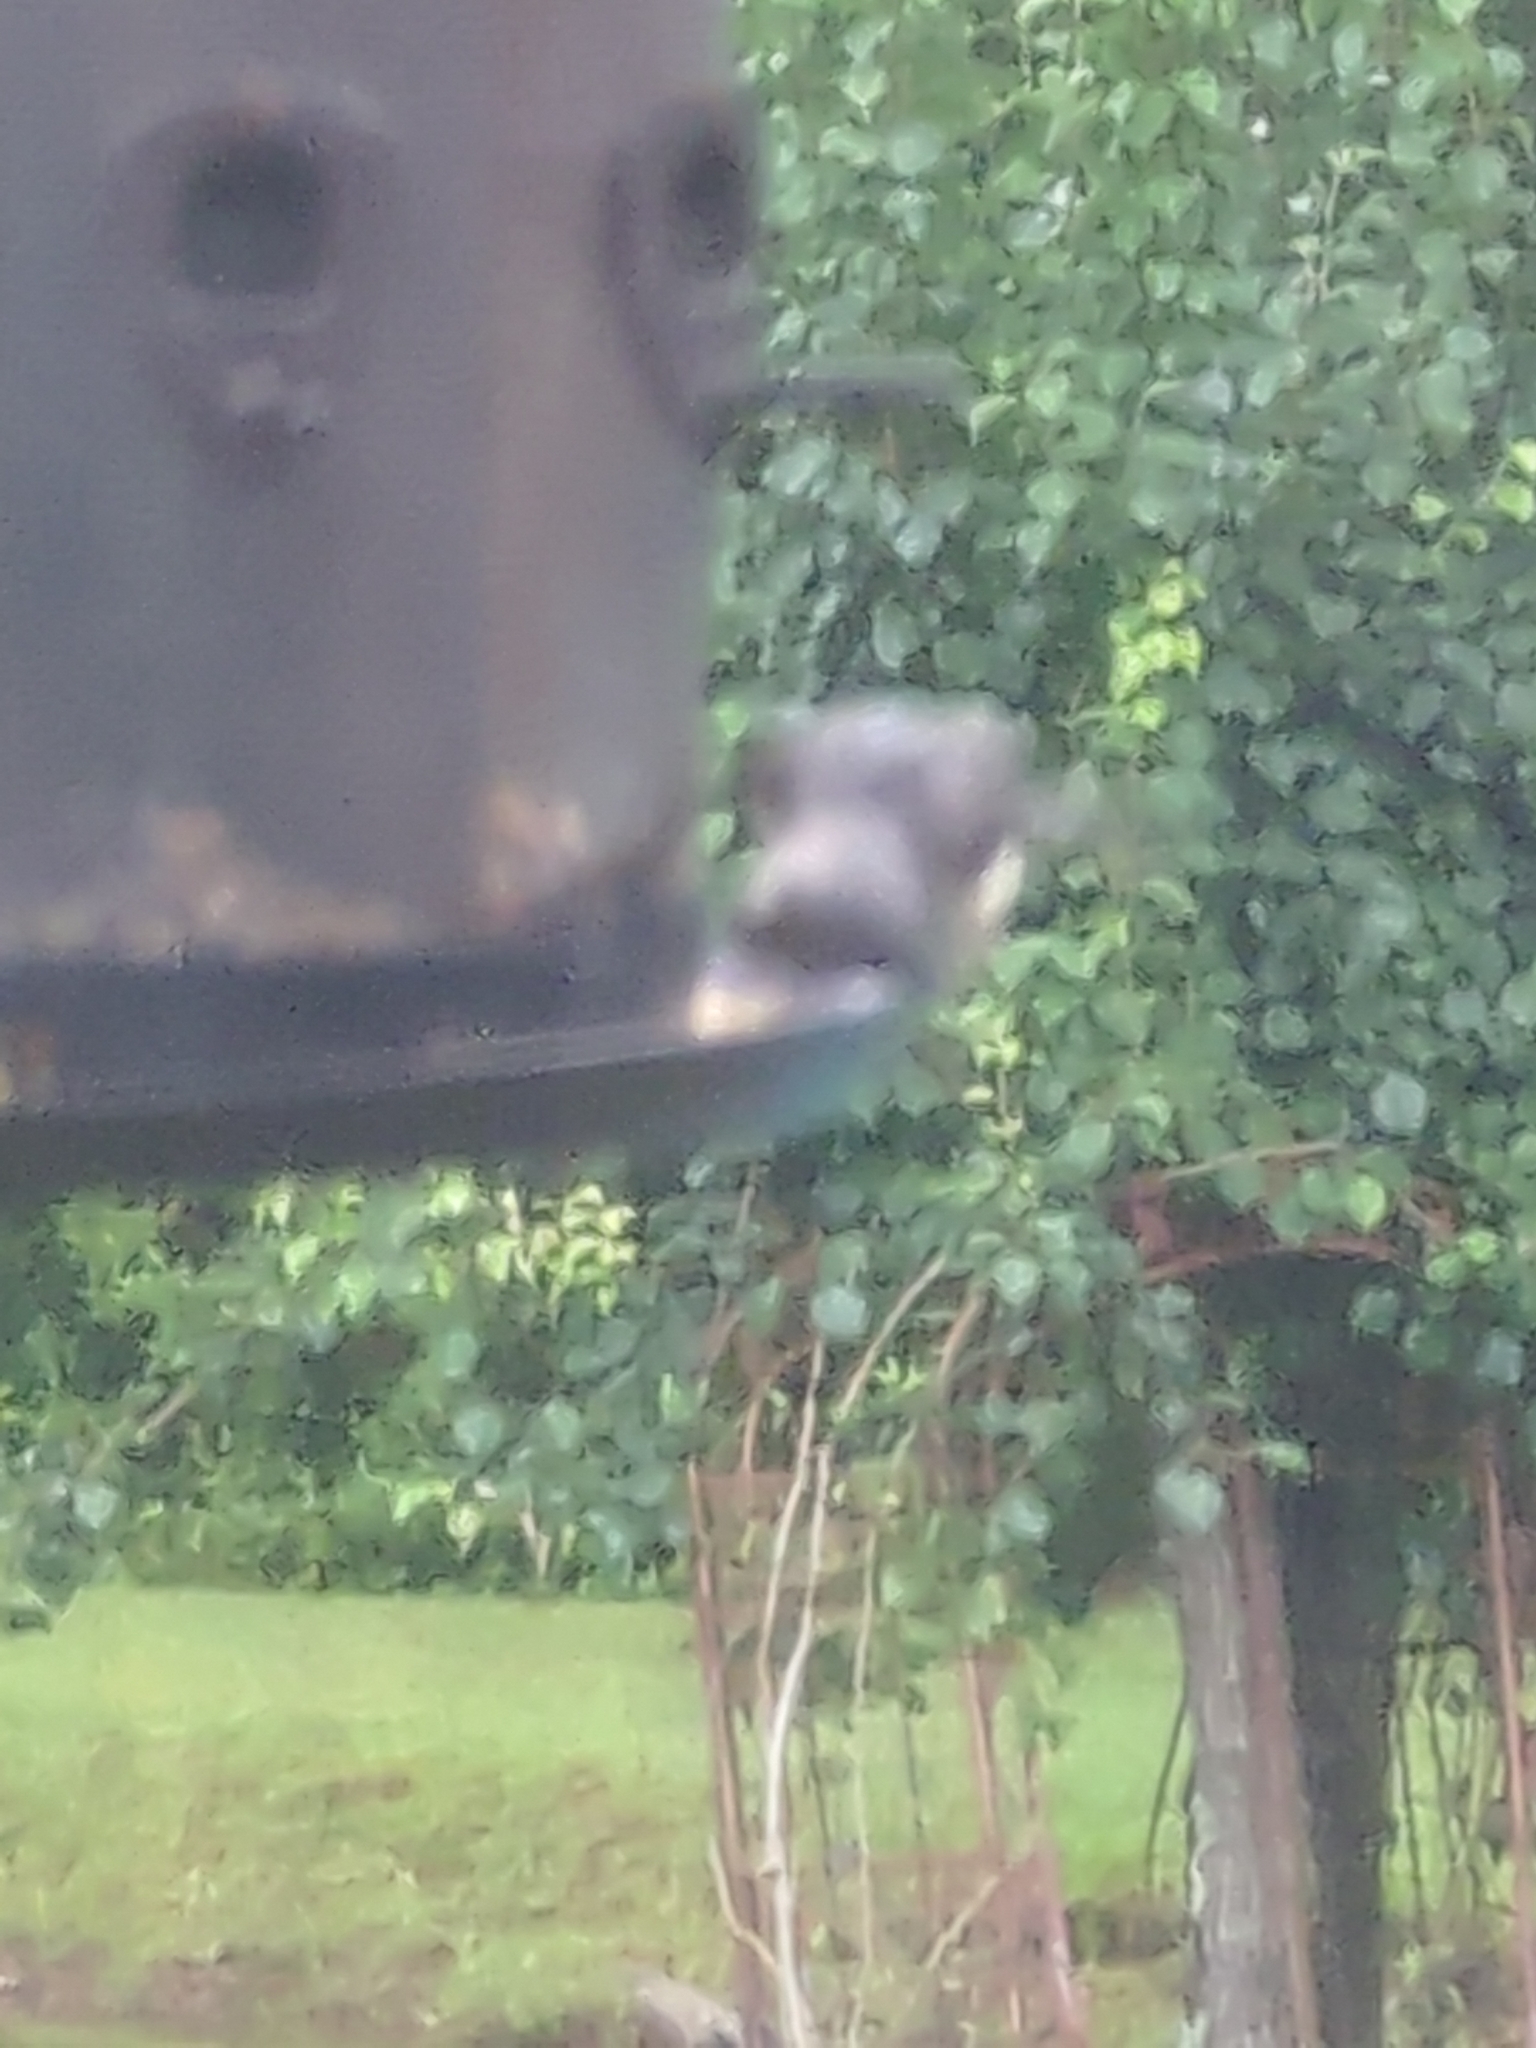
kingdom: Animalia
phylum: Chordata
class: Aves
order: Passeriformes
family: Paridae
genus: Baeolophus
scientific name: Baeolophus bicolor
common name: Tufted titmouse
